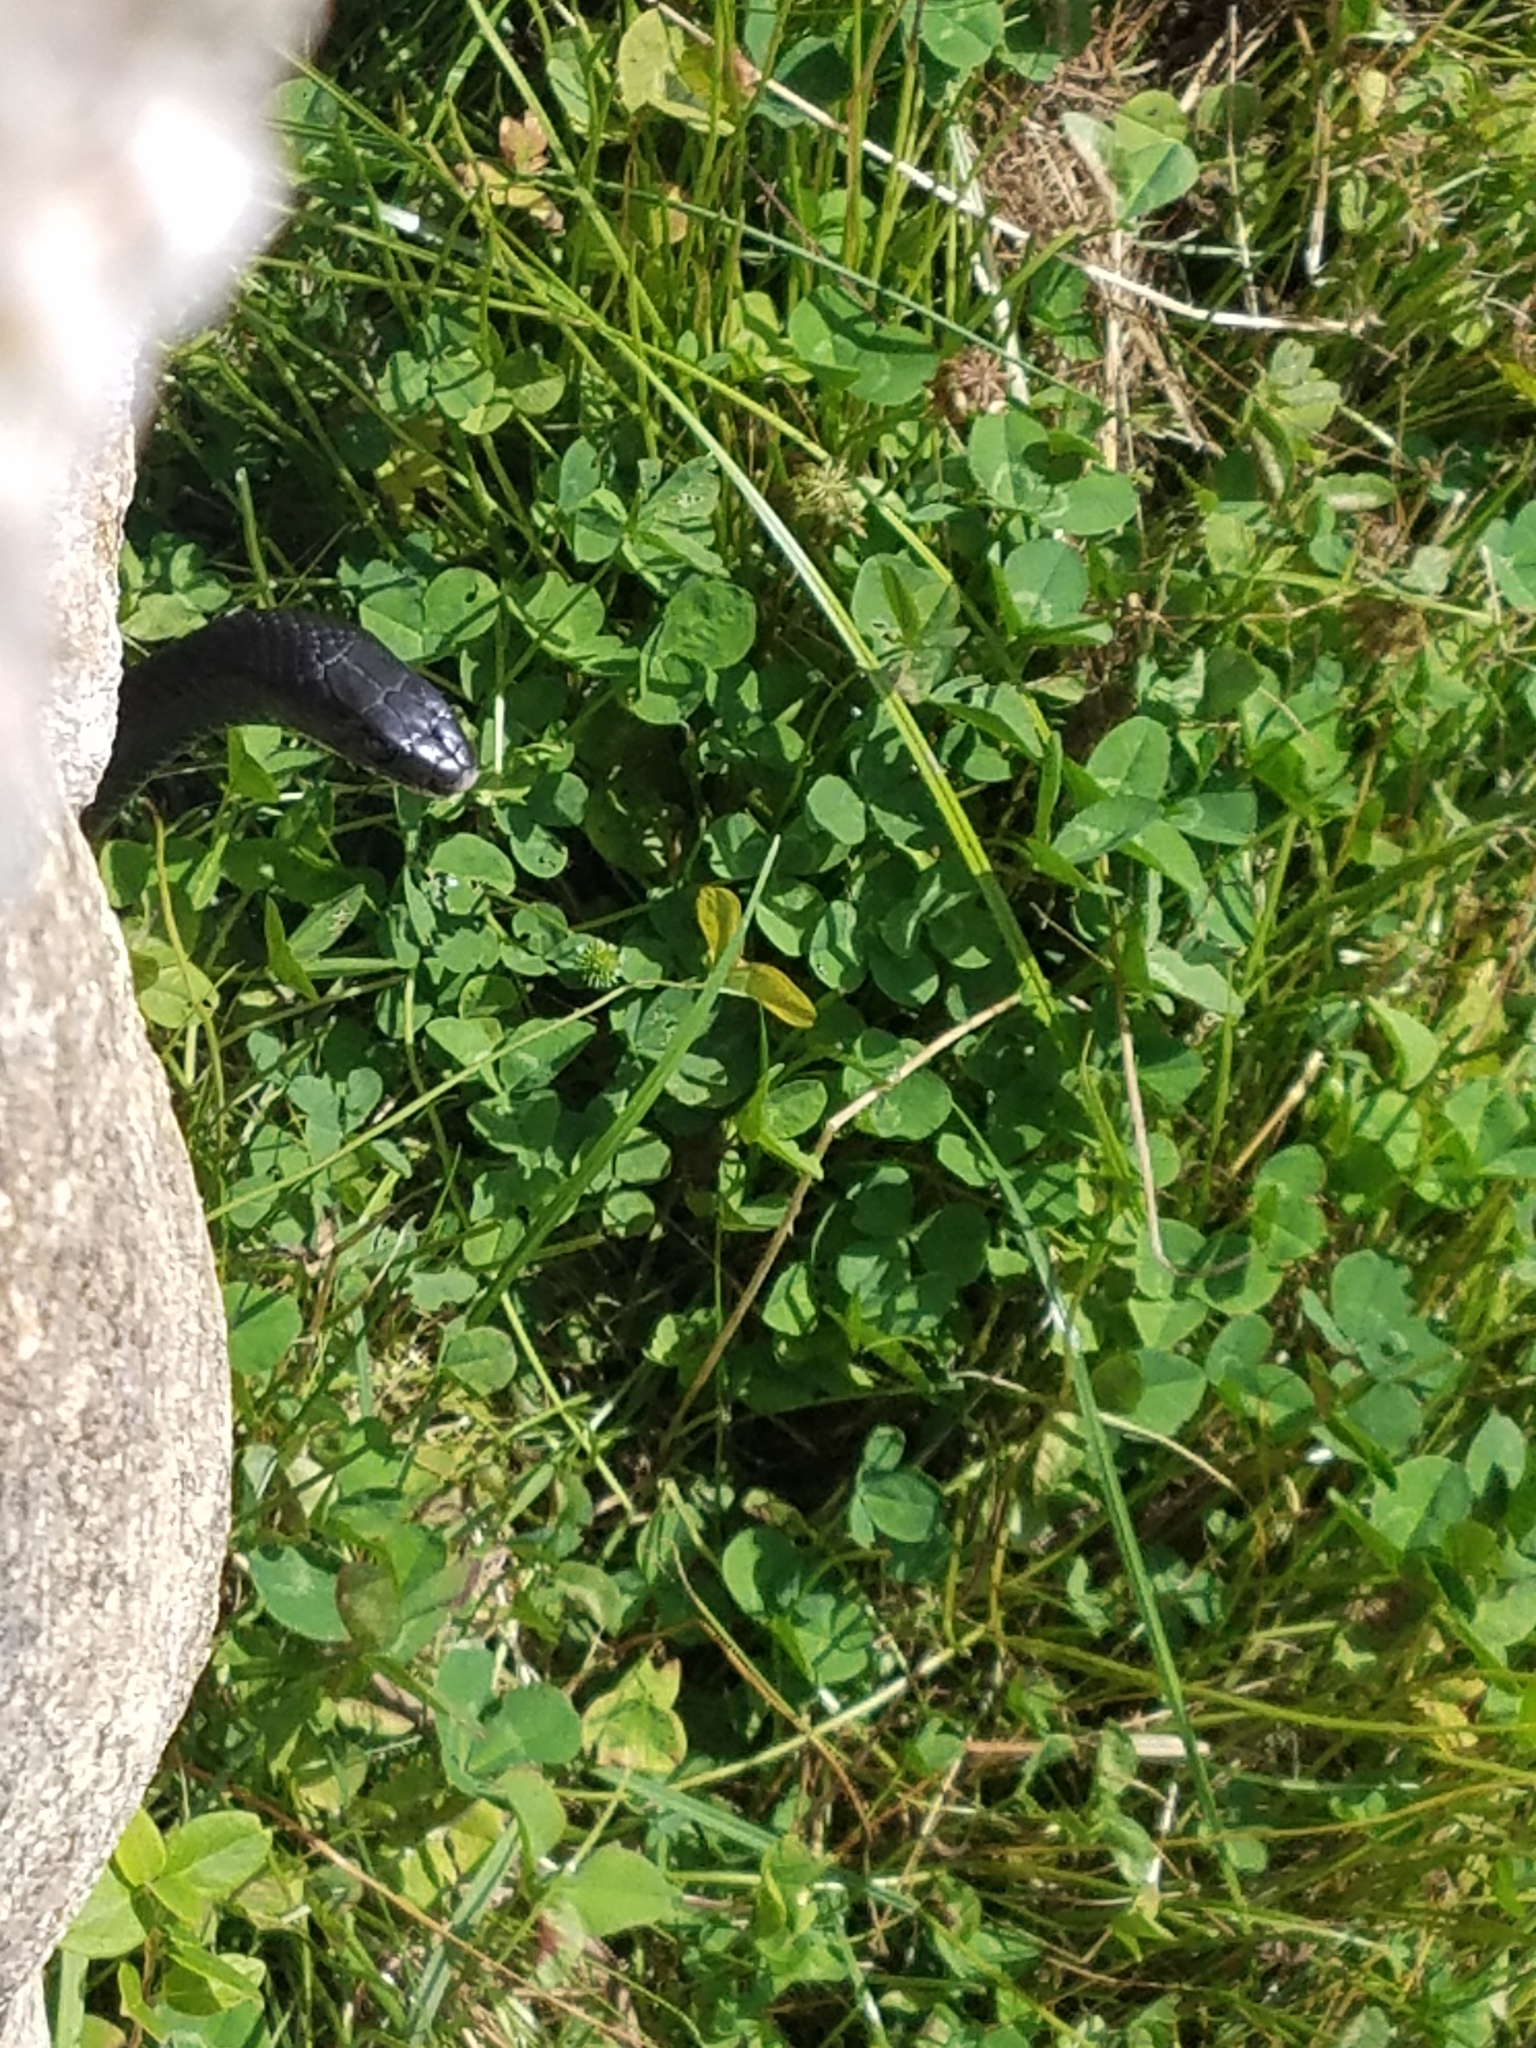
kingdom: Animalia
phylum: Chordata
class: Squamata
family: Colubridae
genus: Coluber
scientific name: Coluber constrictor
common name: Eastern racer
